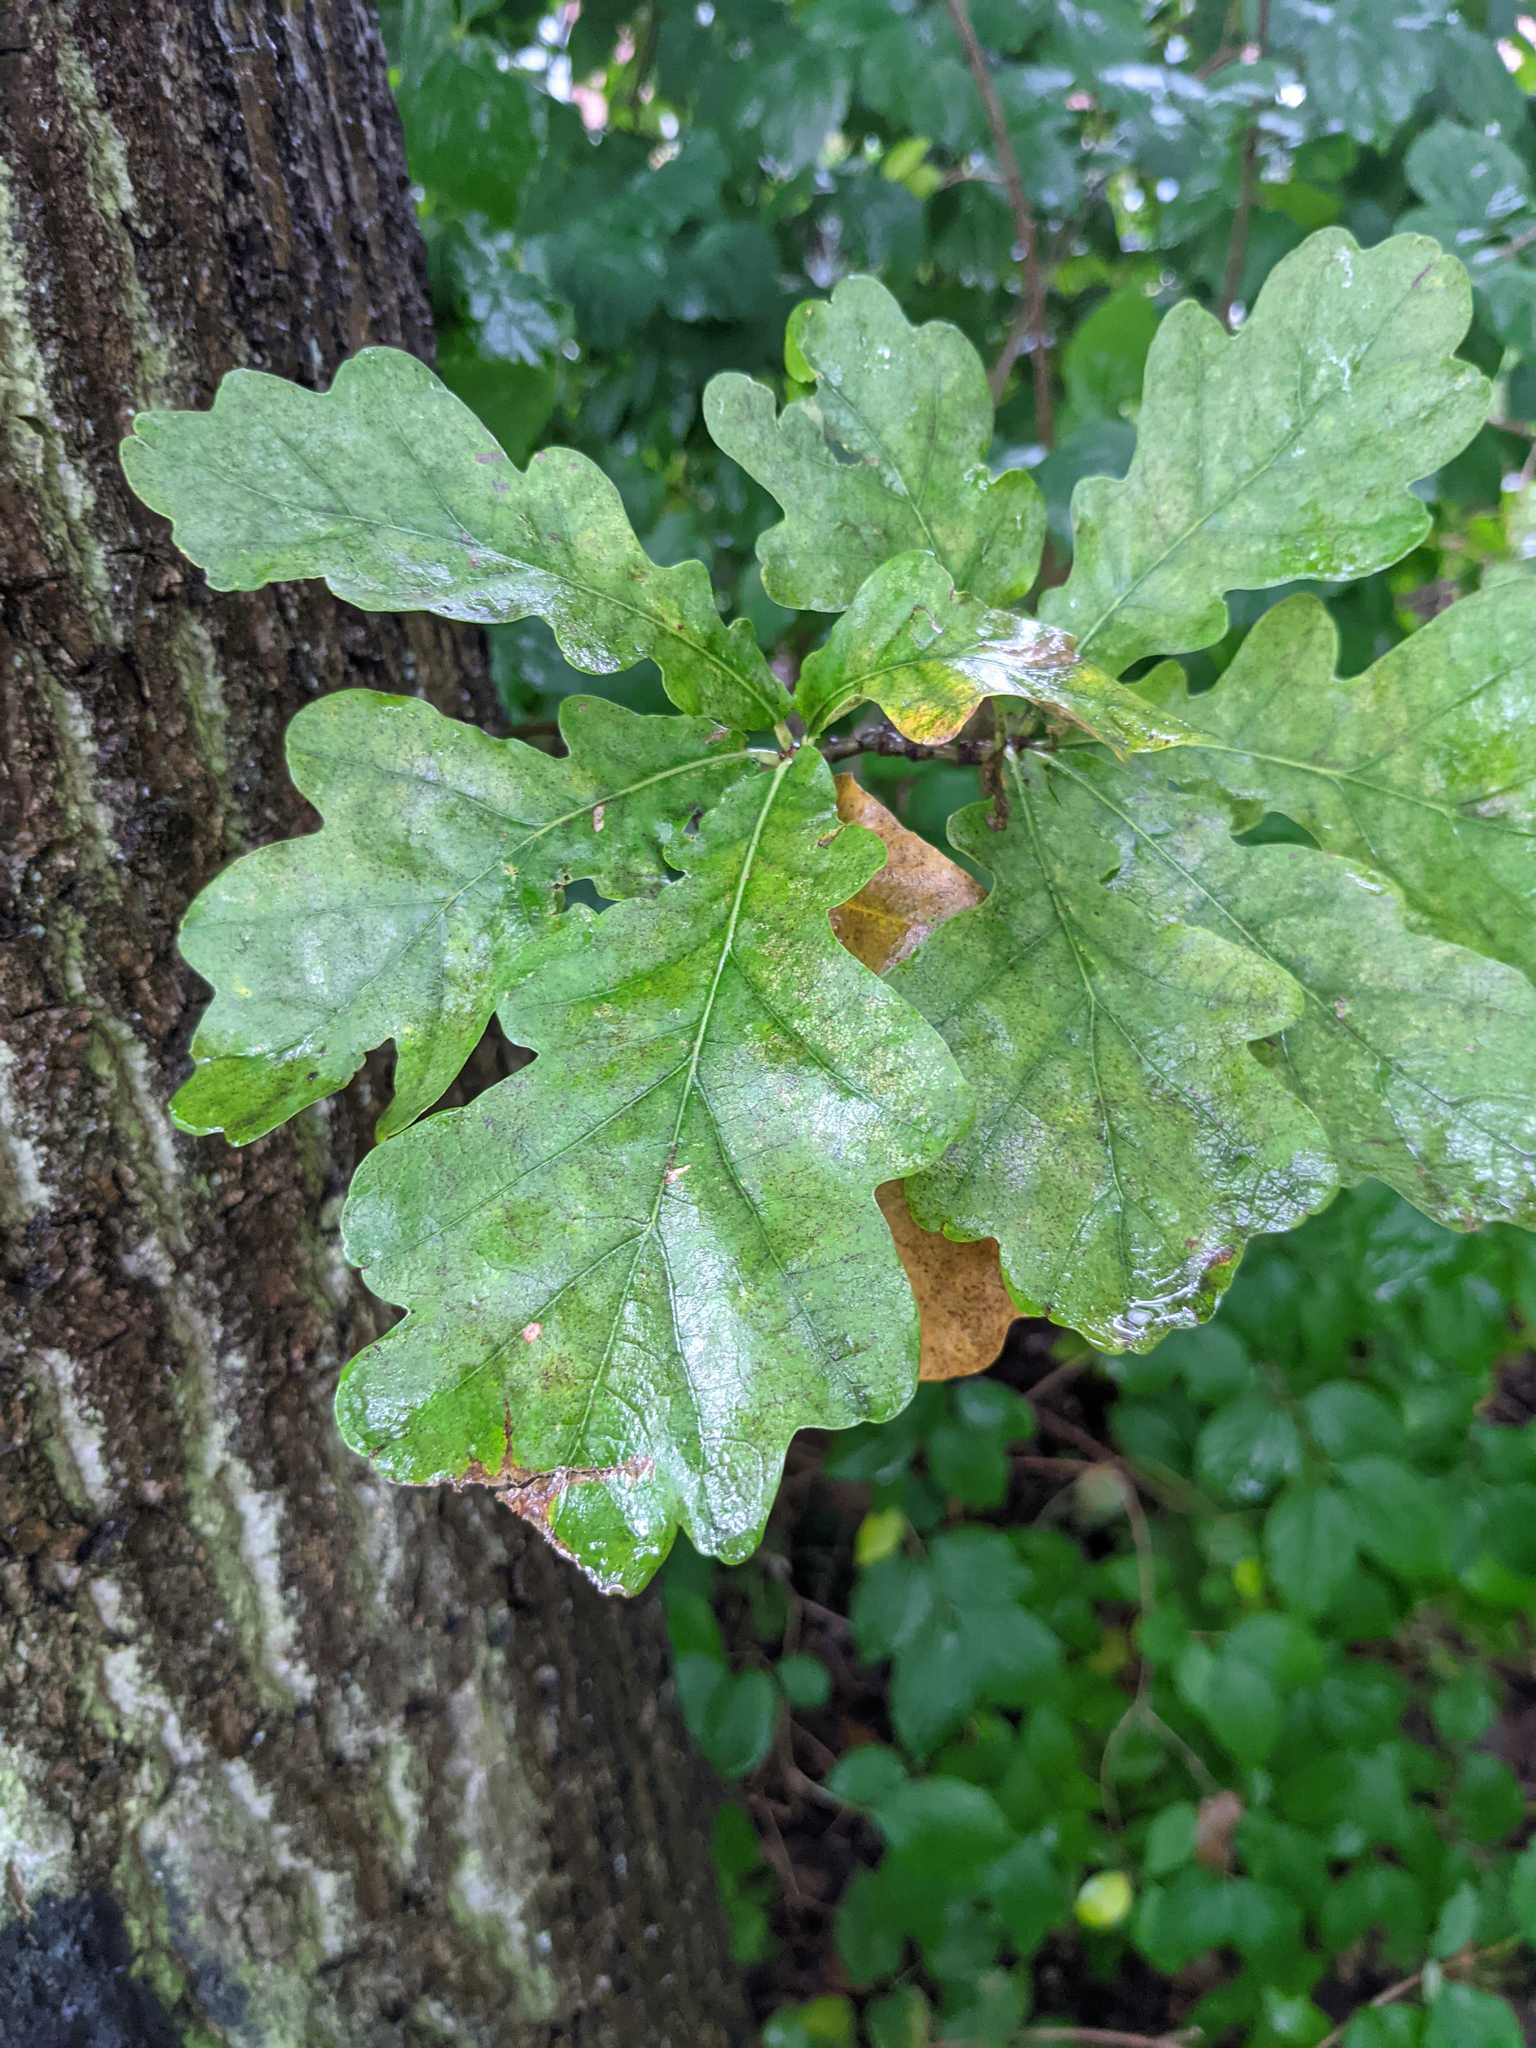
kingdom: Plantae
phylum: Tracheophyta
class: Magnoliopsida
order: Fagales
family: Fagaceae
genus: Quercus
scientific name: Quercus robur
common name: Pedunculate oak
